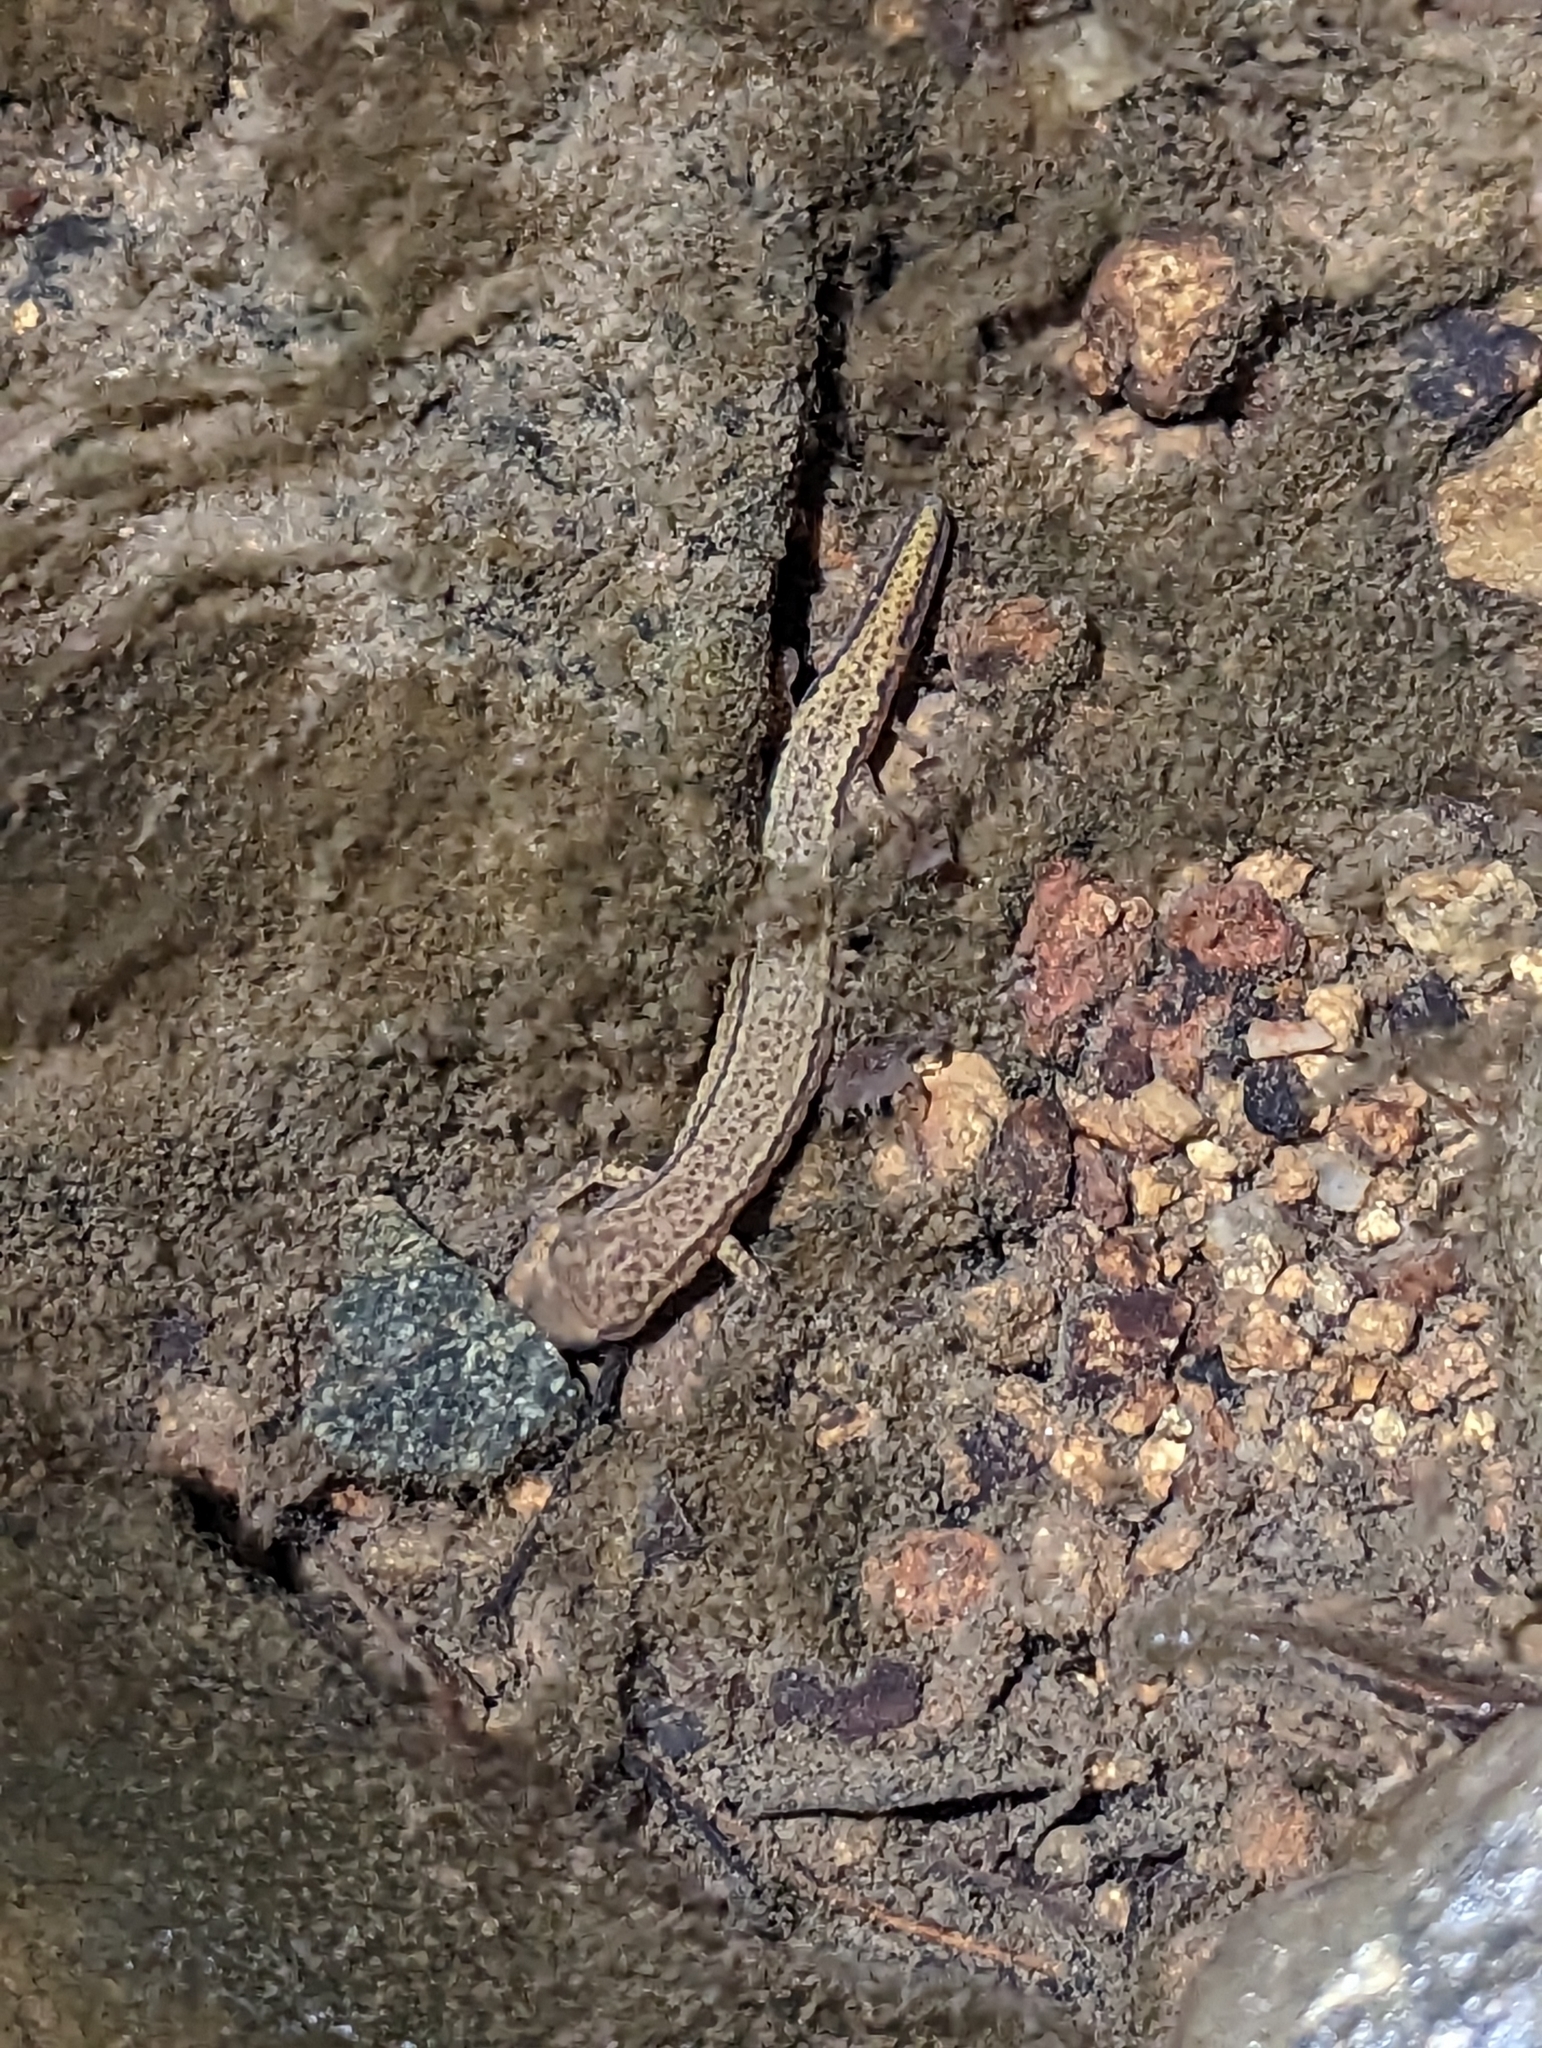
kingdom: Animalia
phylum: Chordata
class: Amphibia
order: Caudata
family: Plethodontidae
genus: Eurycea
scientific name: Eurycea cirrigera
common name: Southern two-lined salamander
